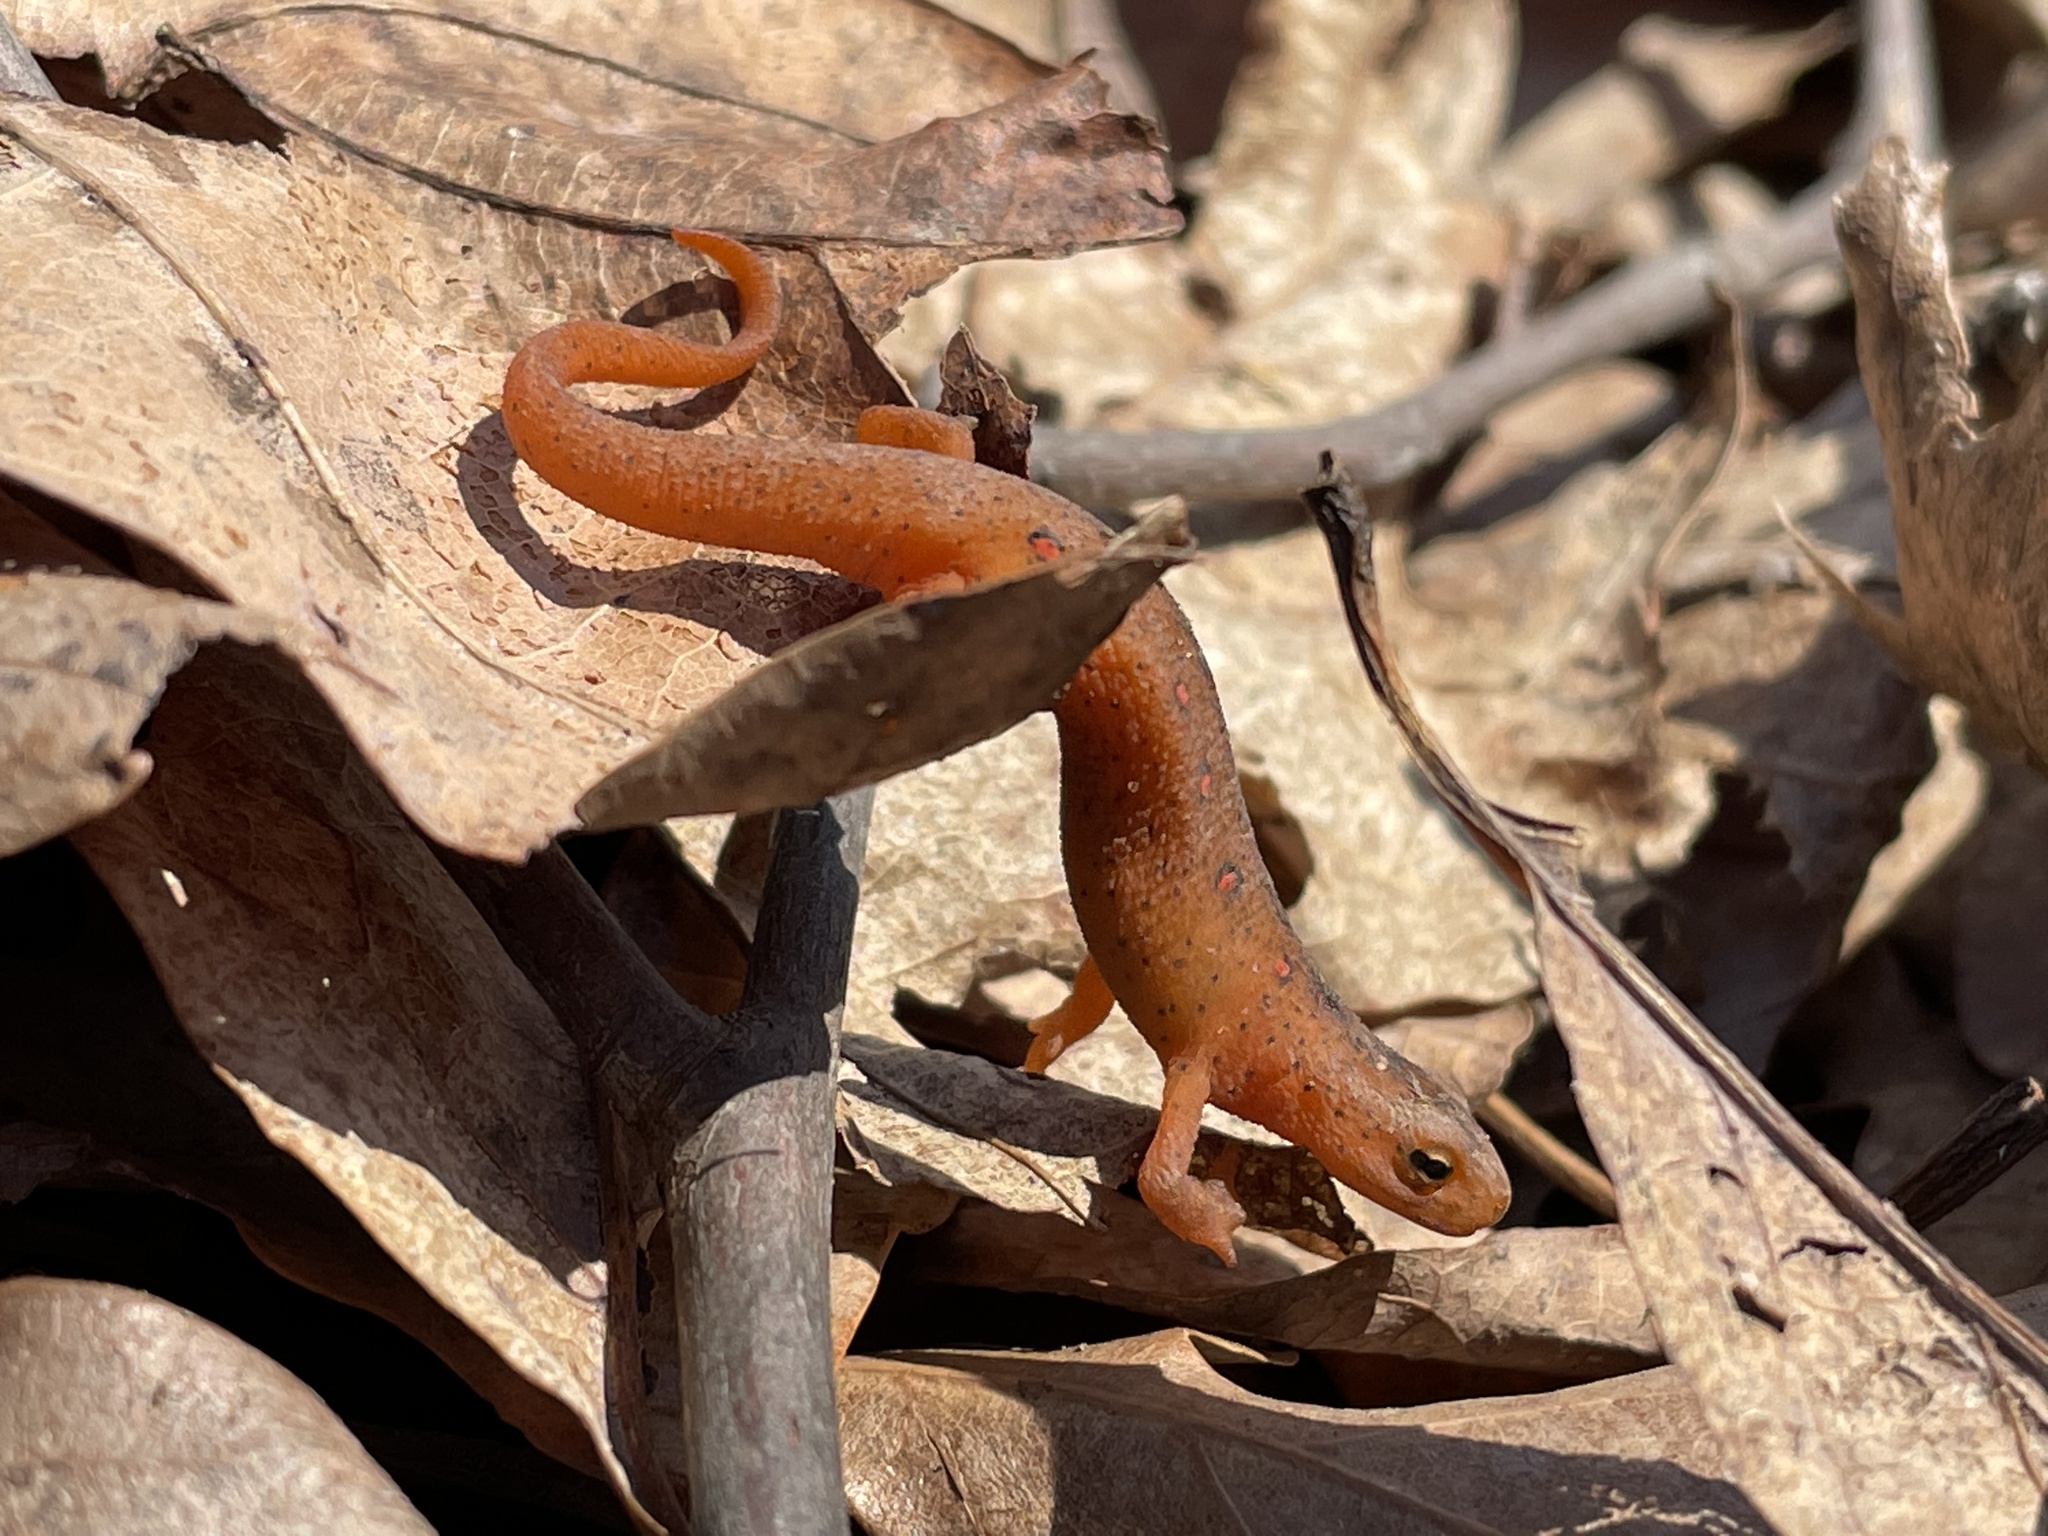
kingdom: Animalia
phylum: Chordata
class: Amphibia
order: Caudata
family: Salamandridae
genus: Notophthalmus
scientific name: Notophthalmus viridescens
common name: Eastern newt
